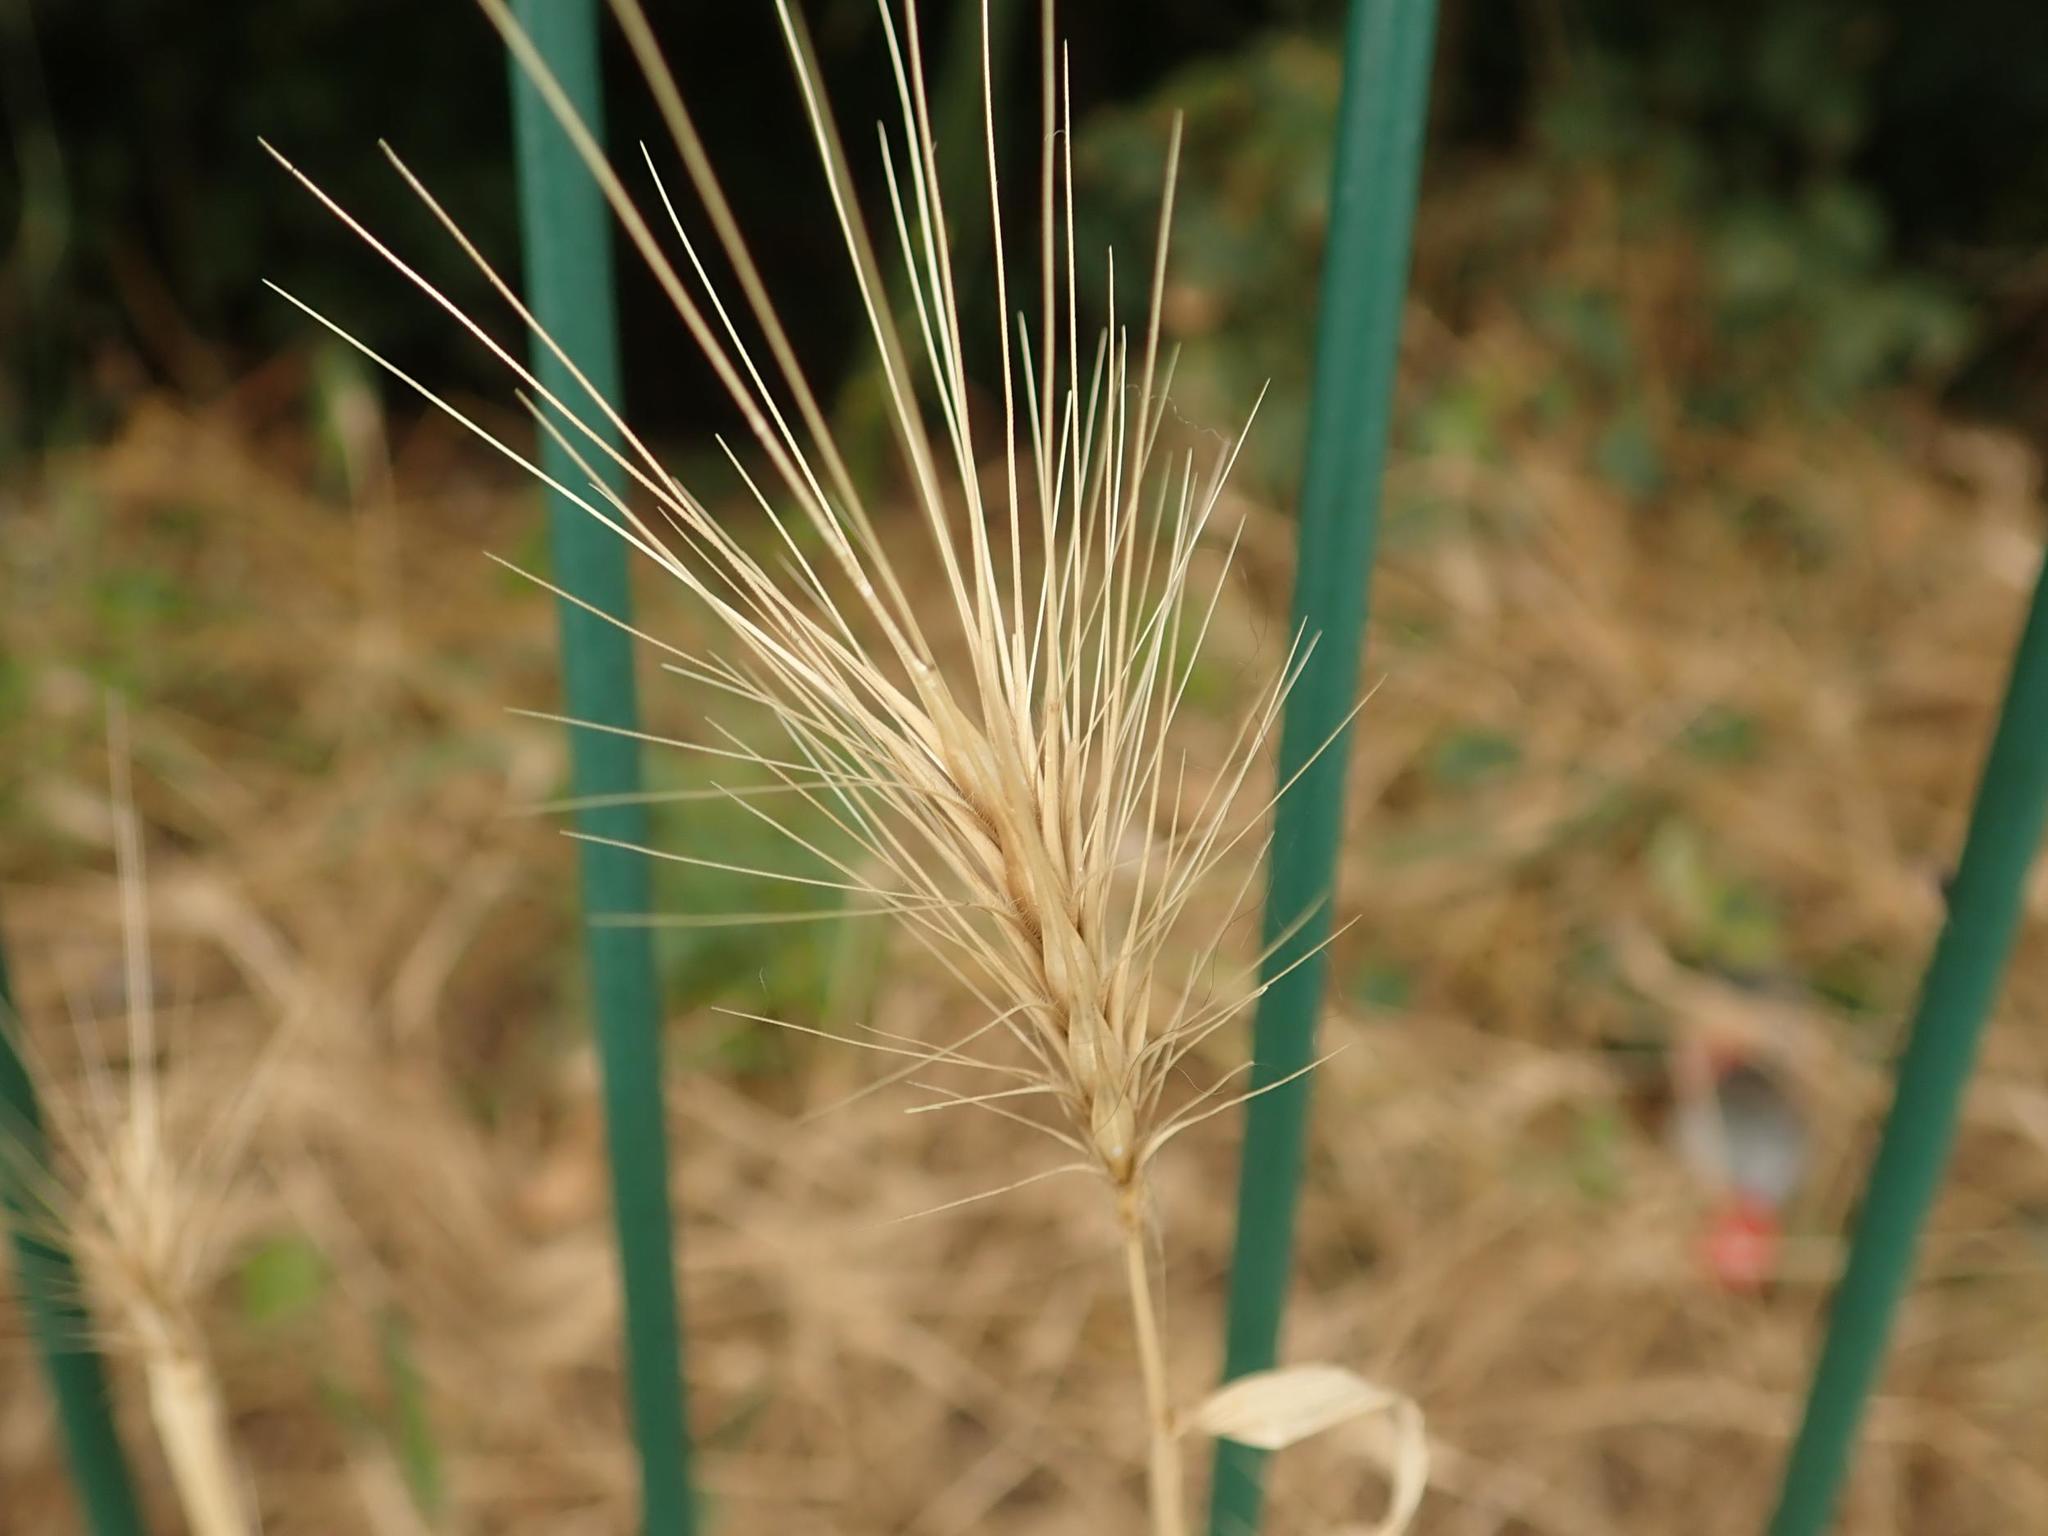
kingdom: Plantae
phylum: Tracheophyta
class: Liliopsida
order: Poales
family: Poaceae
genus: Hordeum
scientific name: Hordeum murinum
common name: Wall barley
